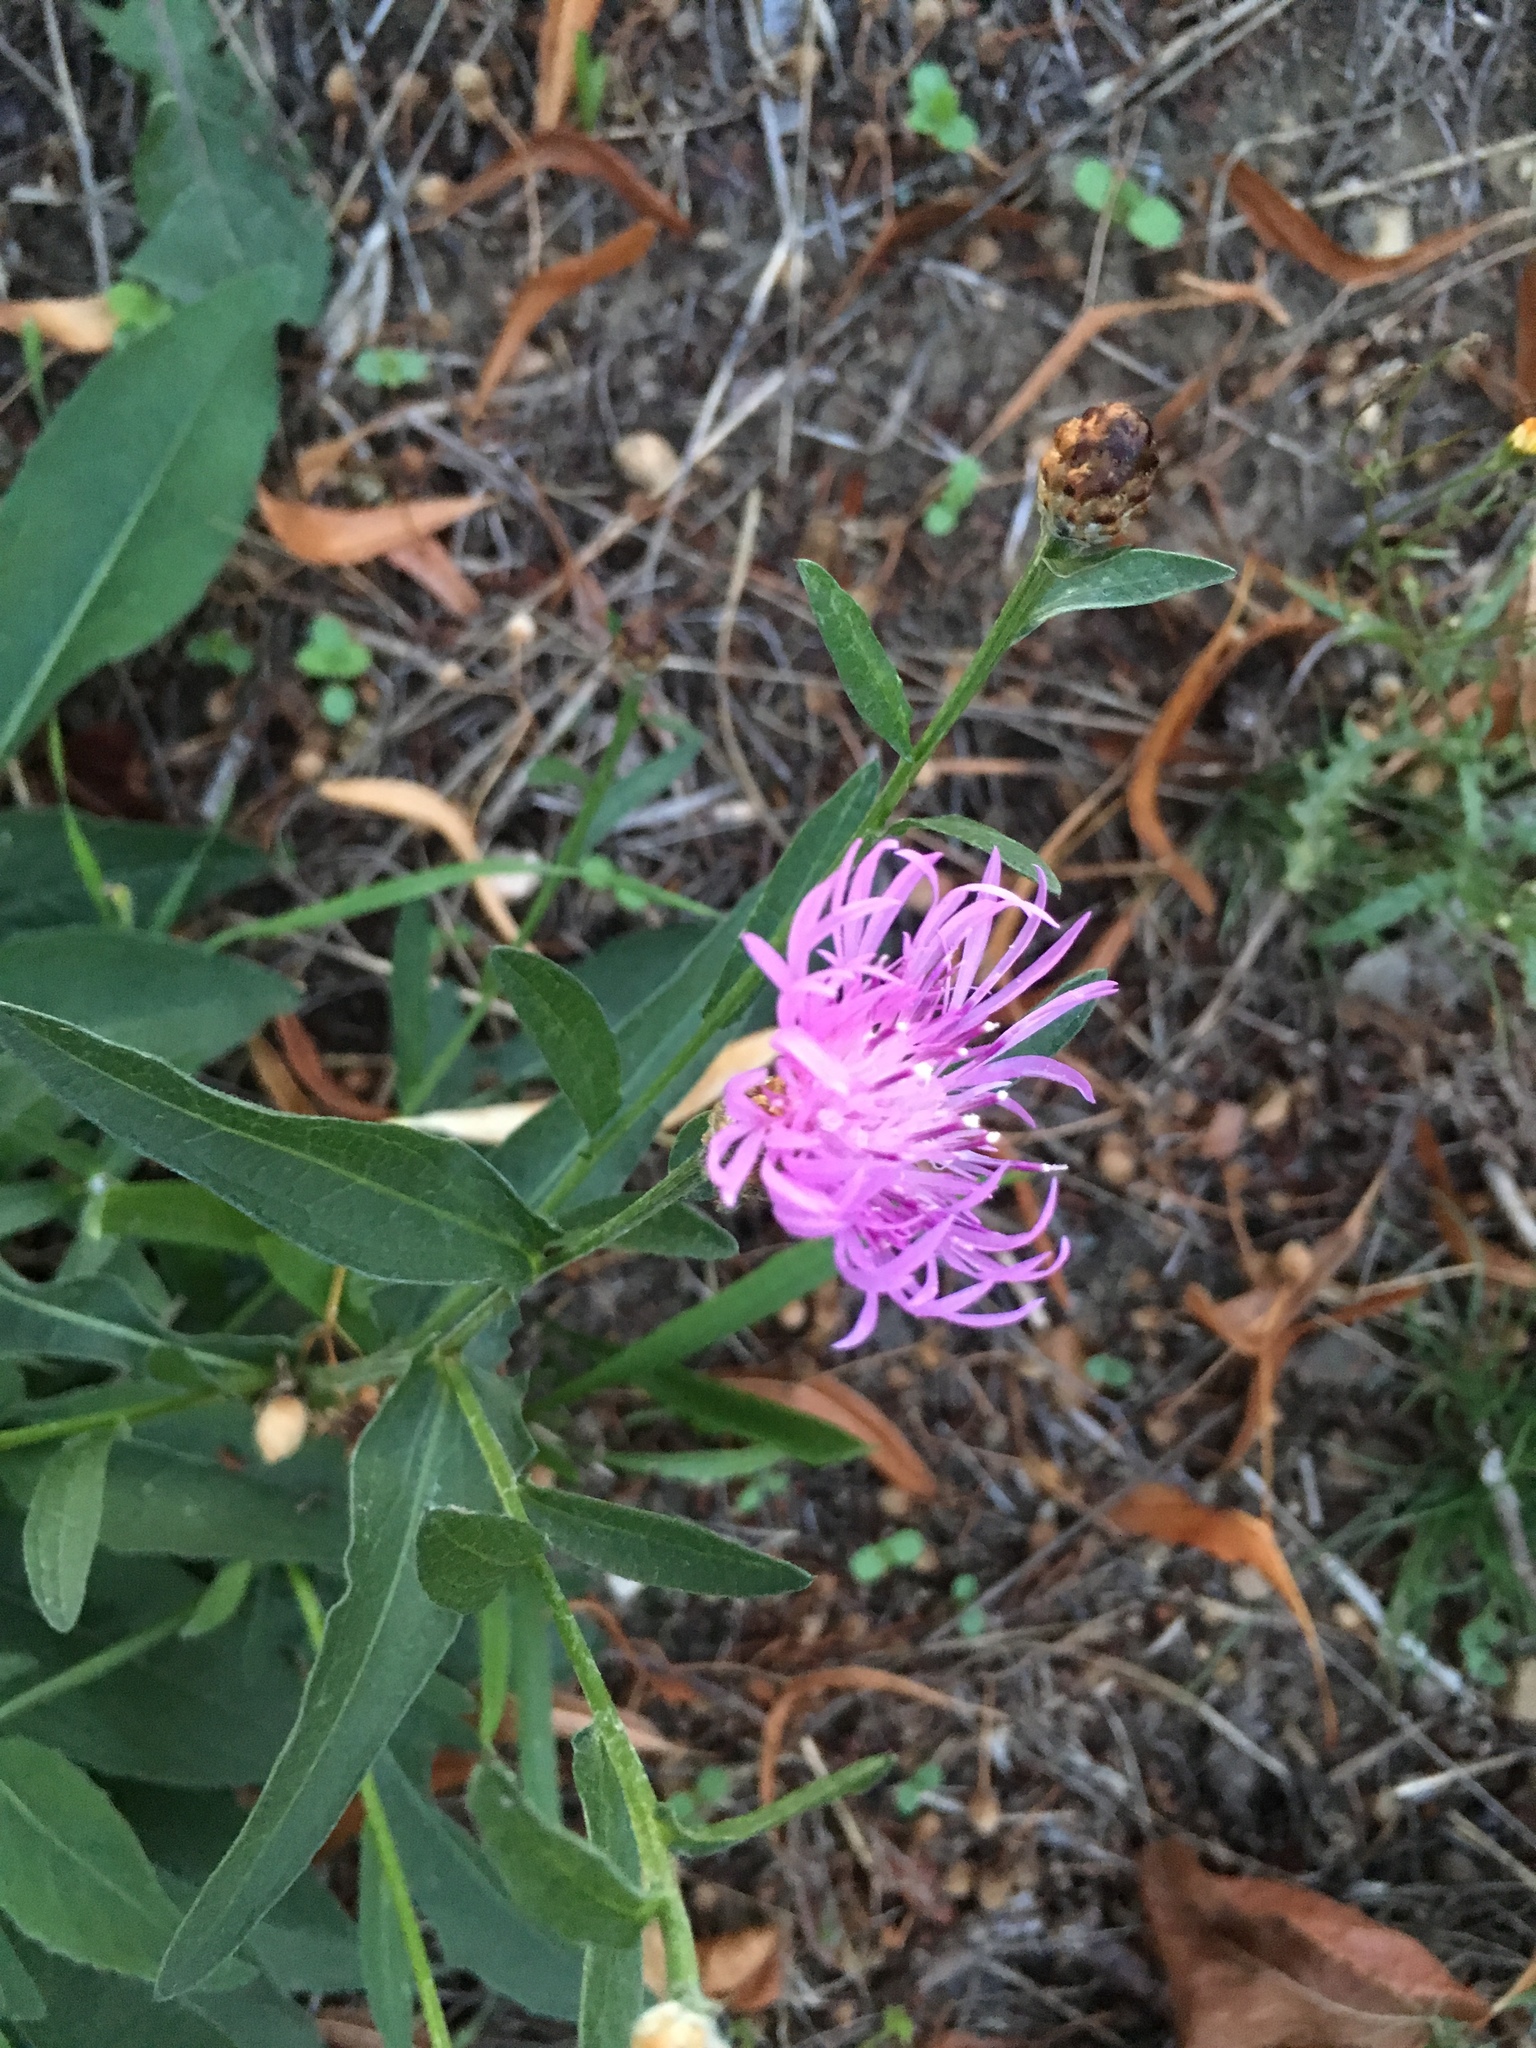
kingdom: Plantae
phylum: Tracheophyta
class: Magnoliopsida
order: Asterales
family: Asteraceae
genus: Centaurea
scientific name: Centaurea jacea
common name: Brown knapweed
